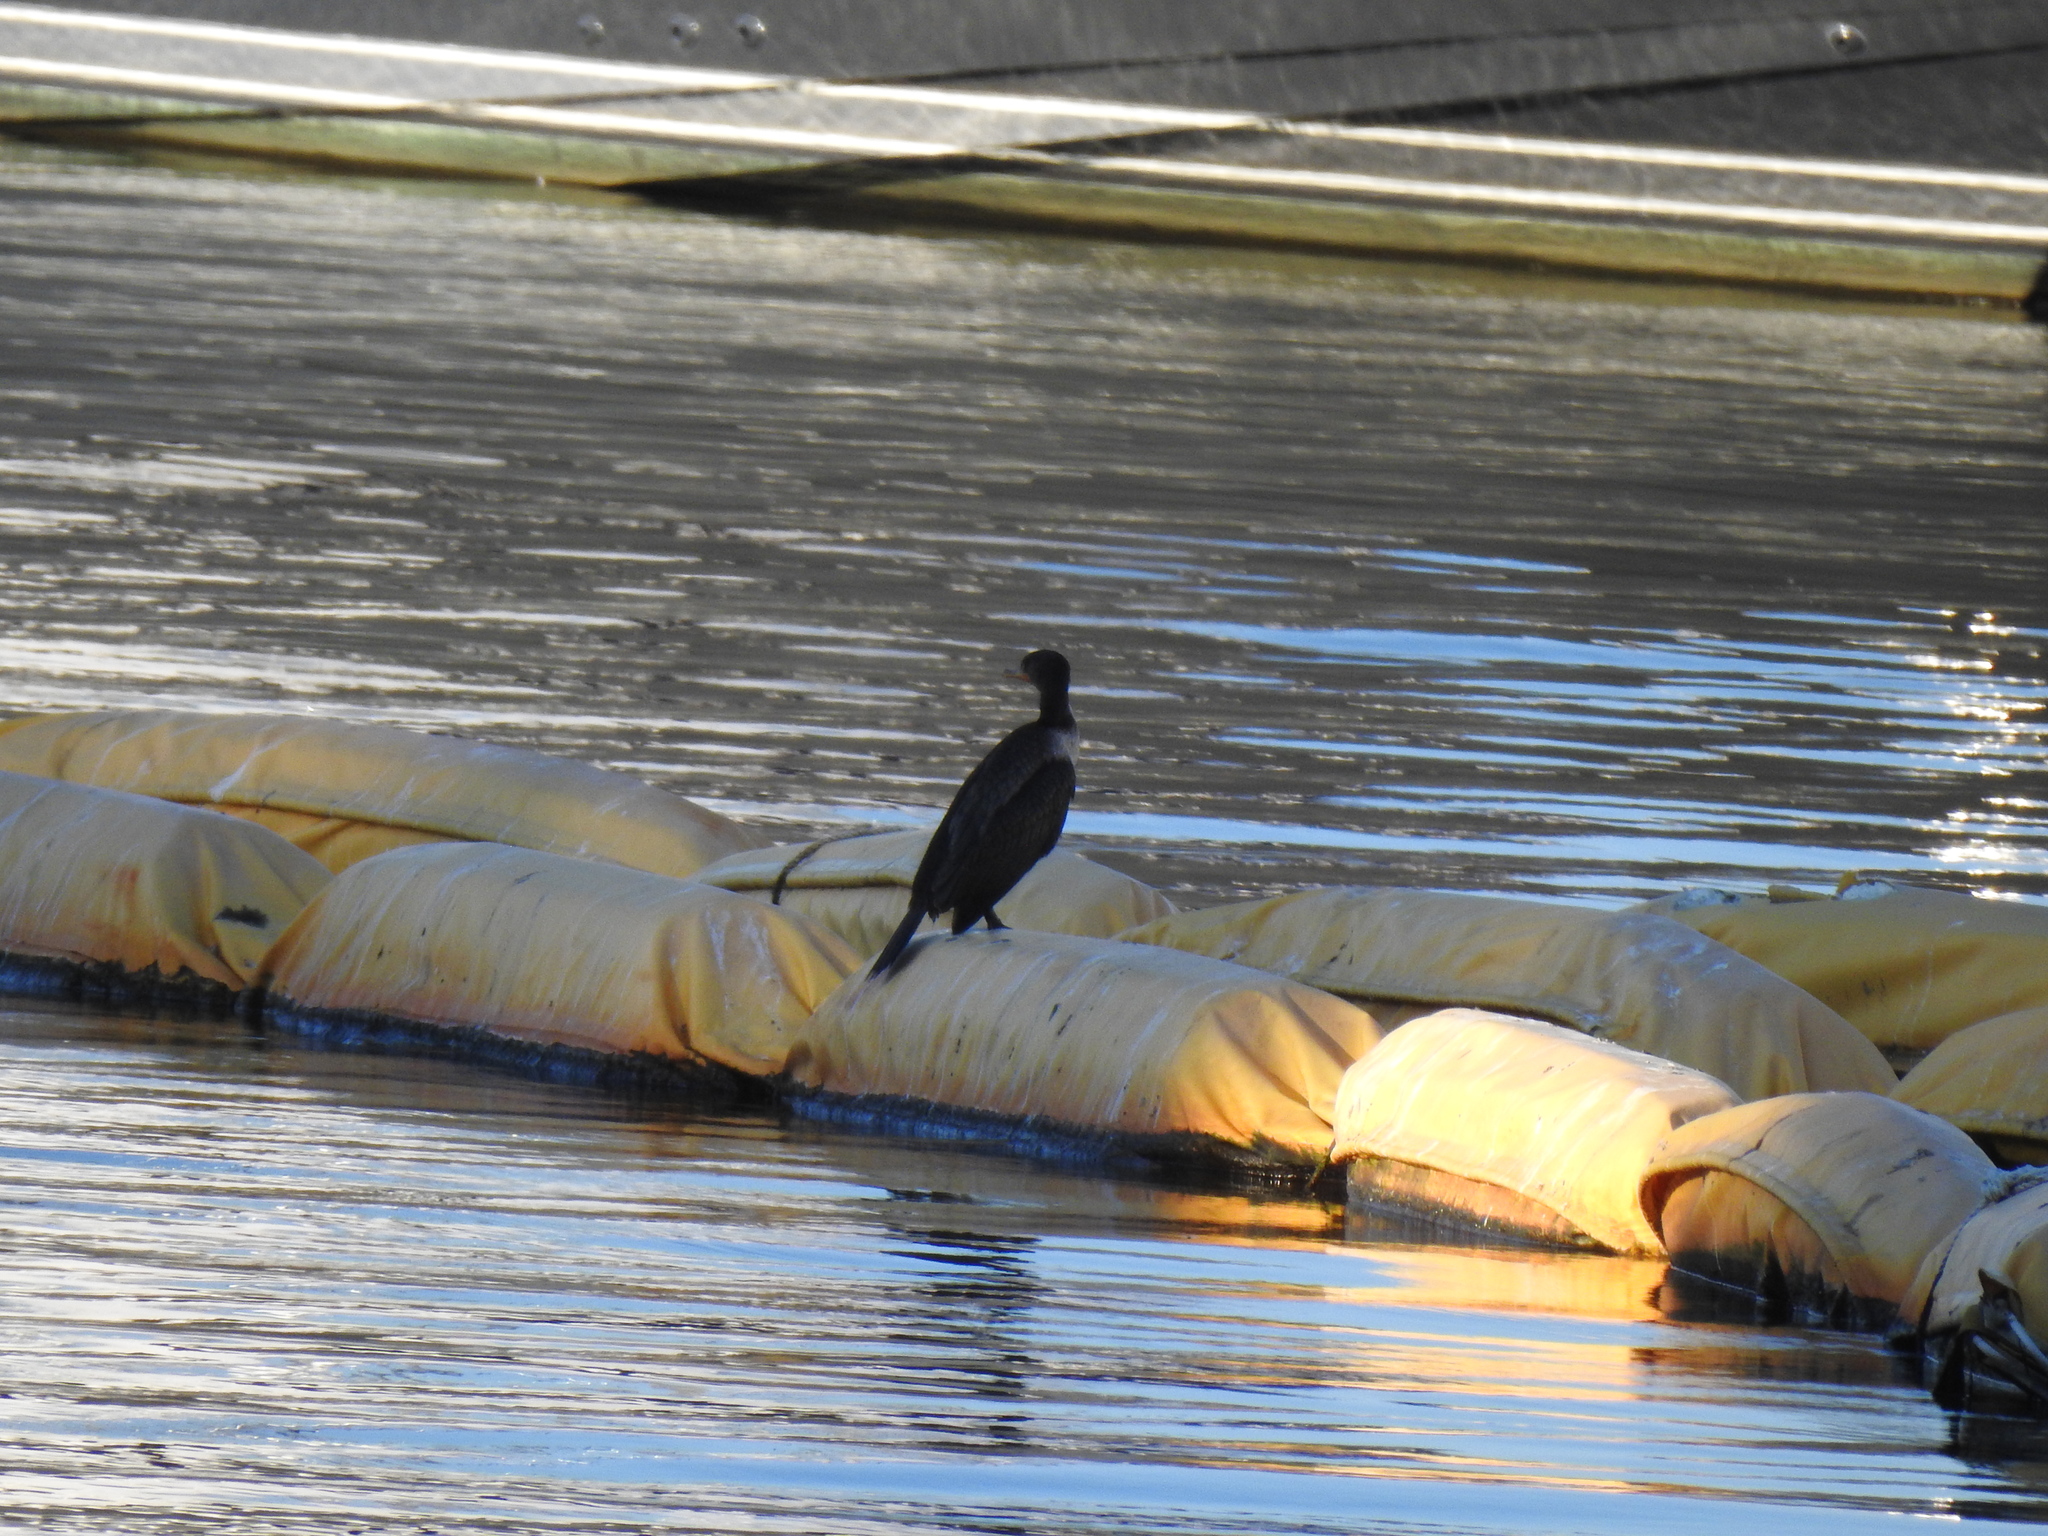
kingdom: Animalia
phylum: Chordata
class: Aves
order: Suliformes
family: Phalacrocoracidae
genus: Phalacrocorax
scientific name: Phalacrocorax auritus
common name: Double-crested cormorant
